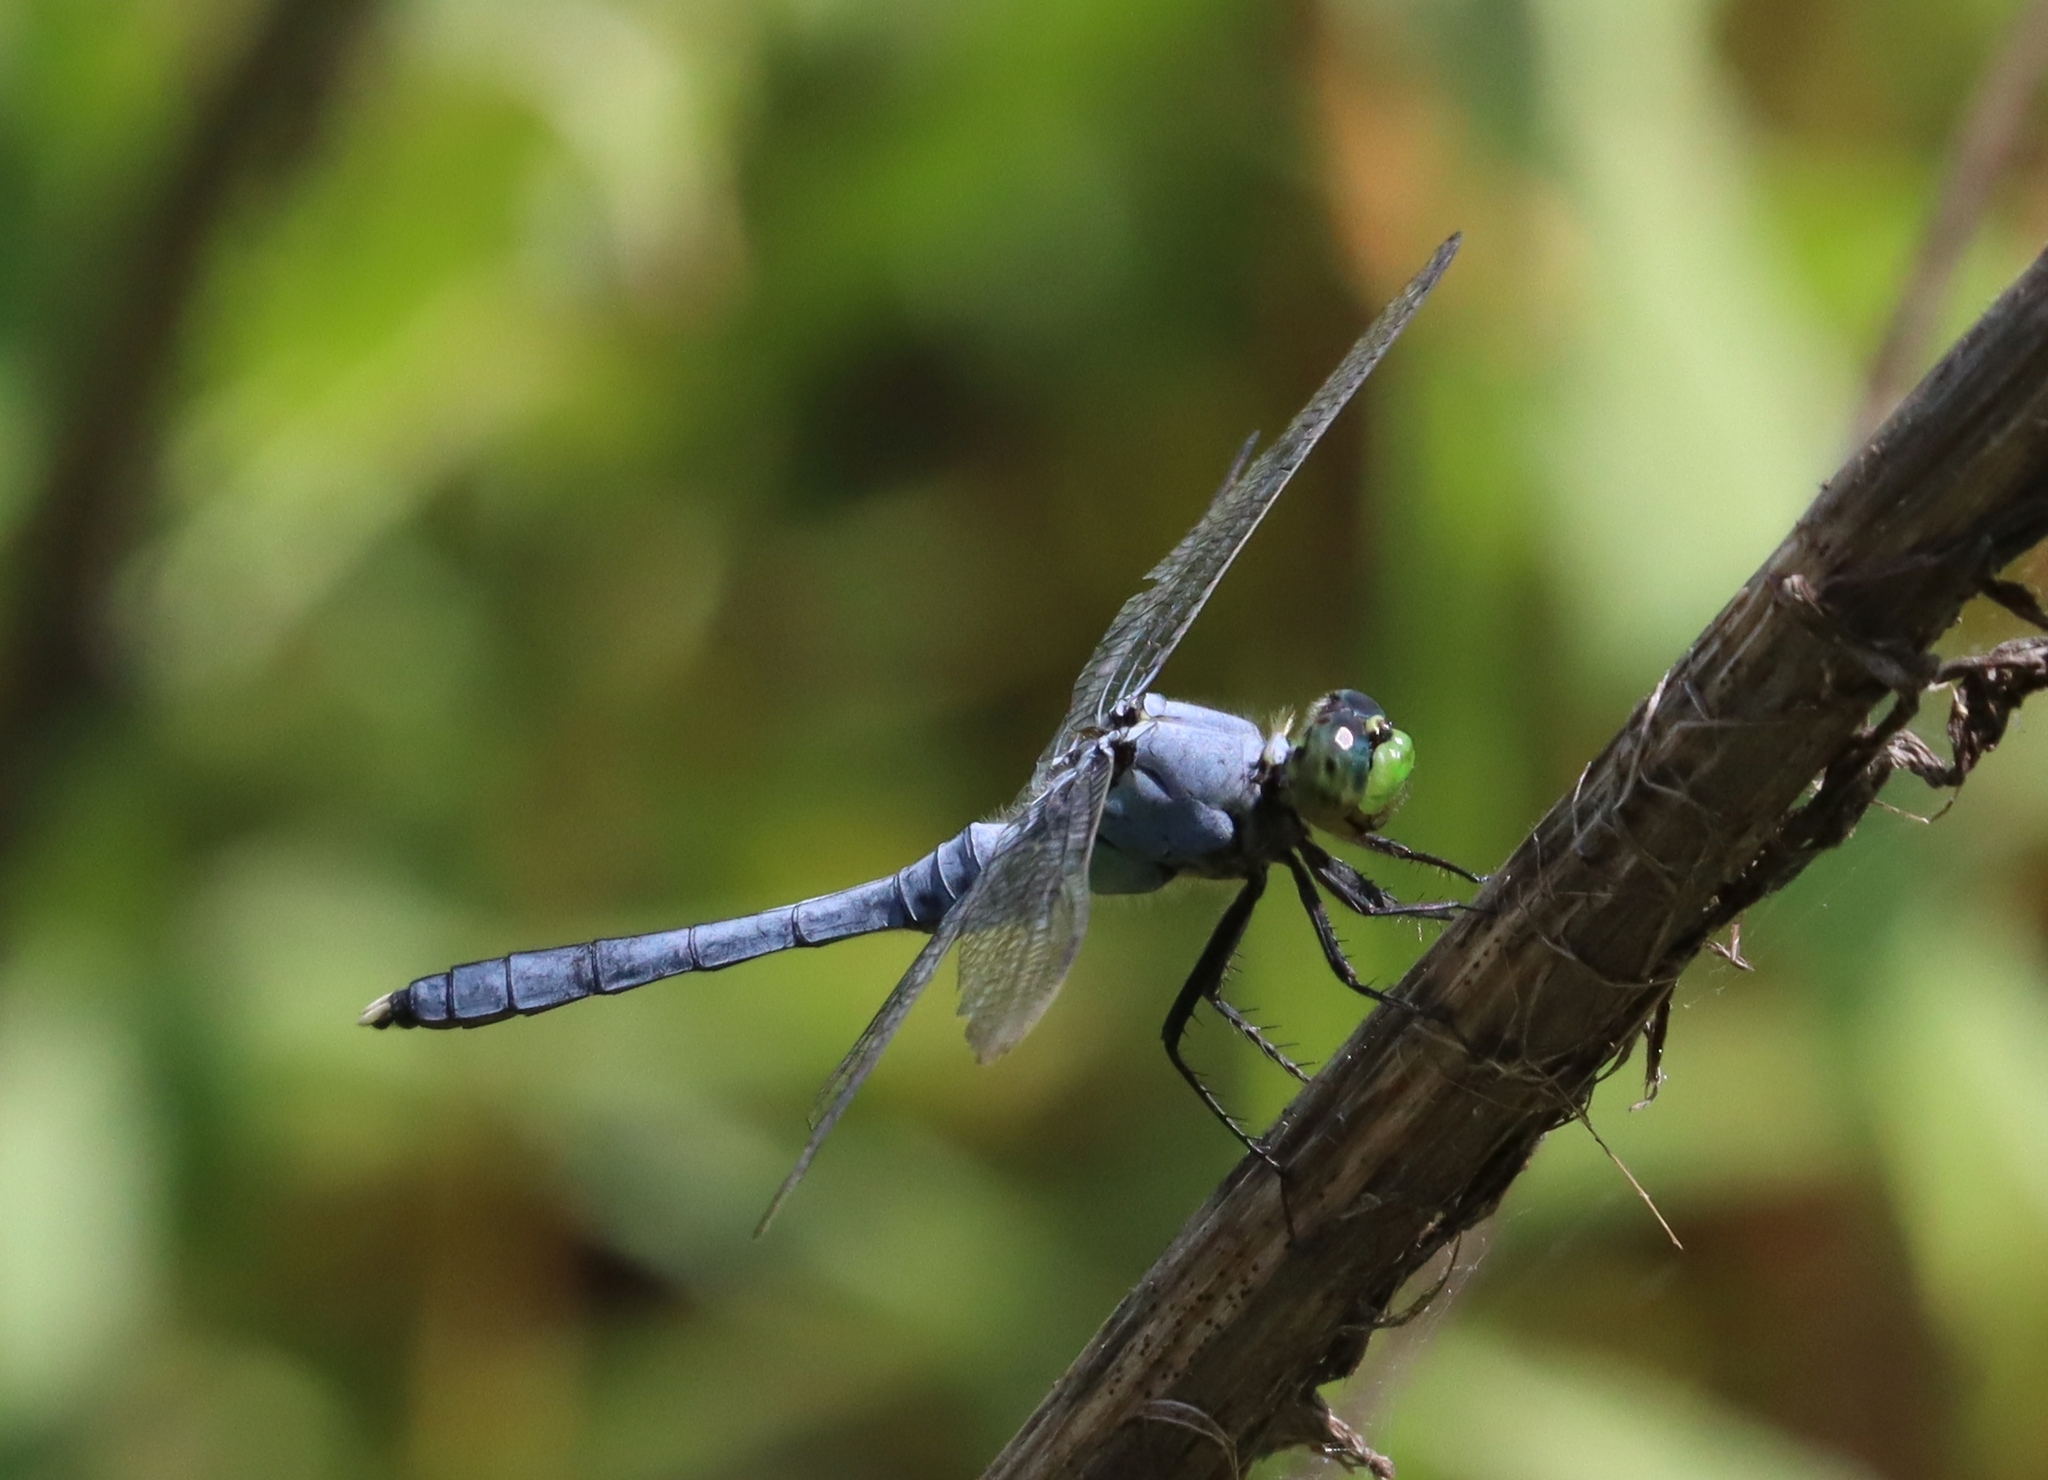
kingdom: Animalia
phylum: Arthropoda
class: Insecta
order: Odonata
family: Libellulidae
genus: Erythemis
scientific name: Erythemis simplicicollis
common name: Eastern pondhawk
